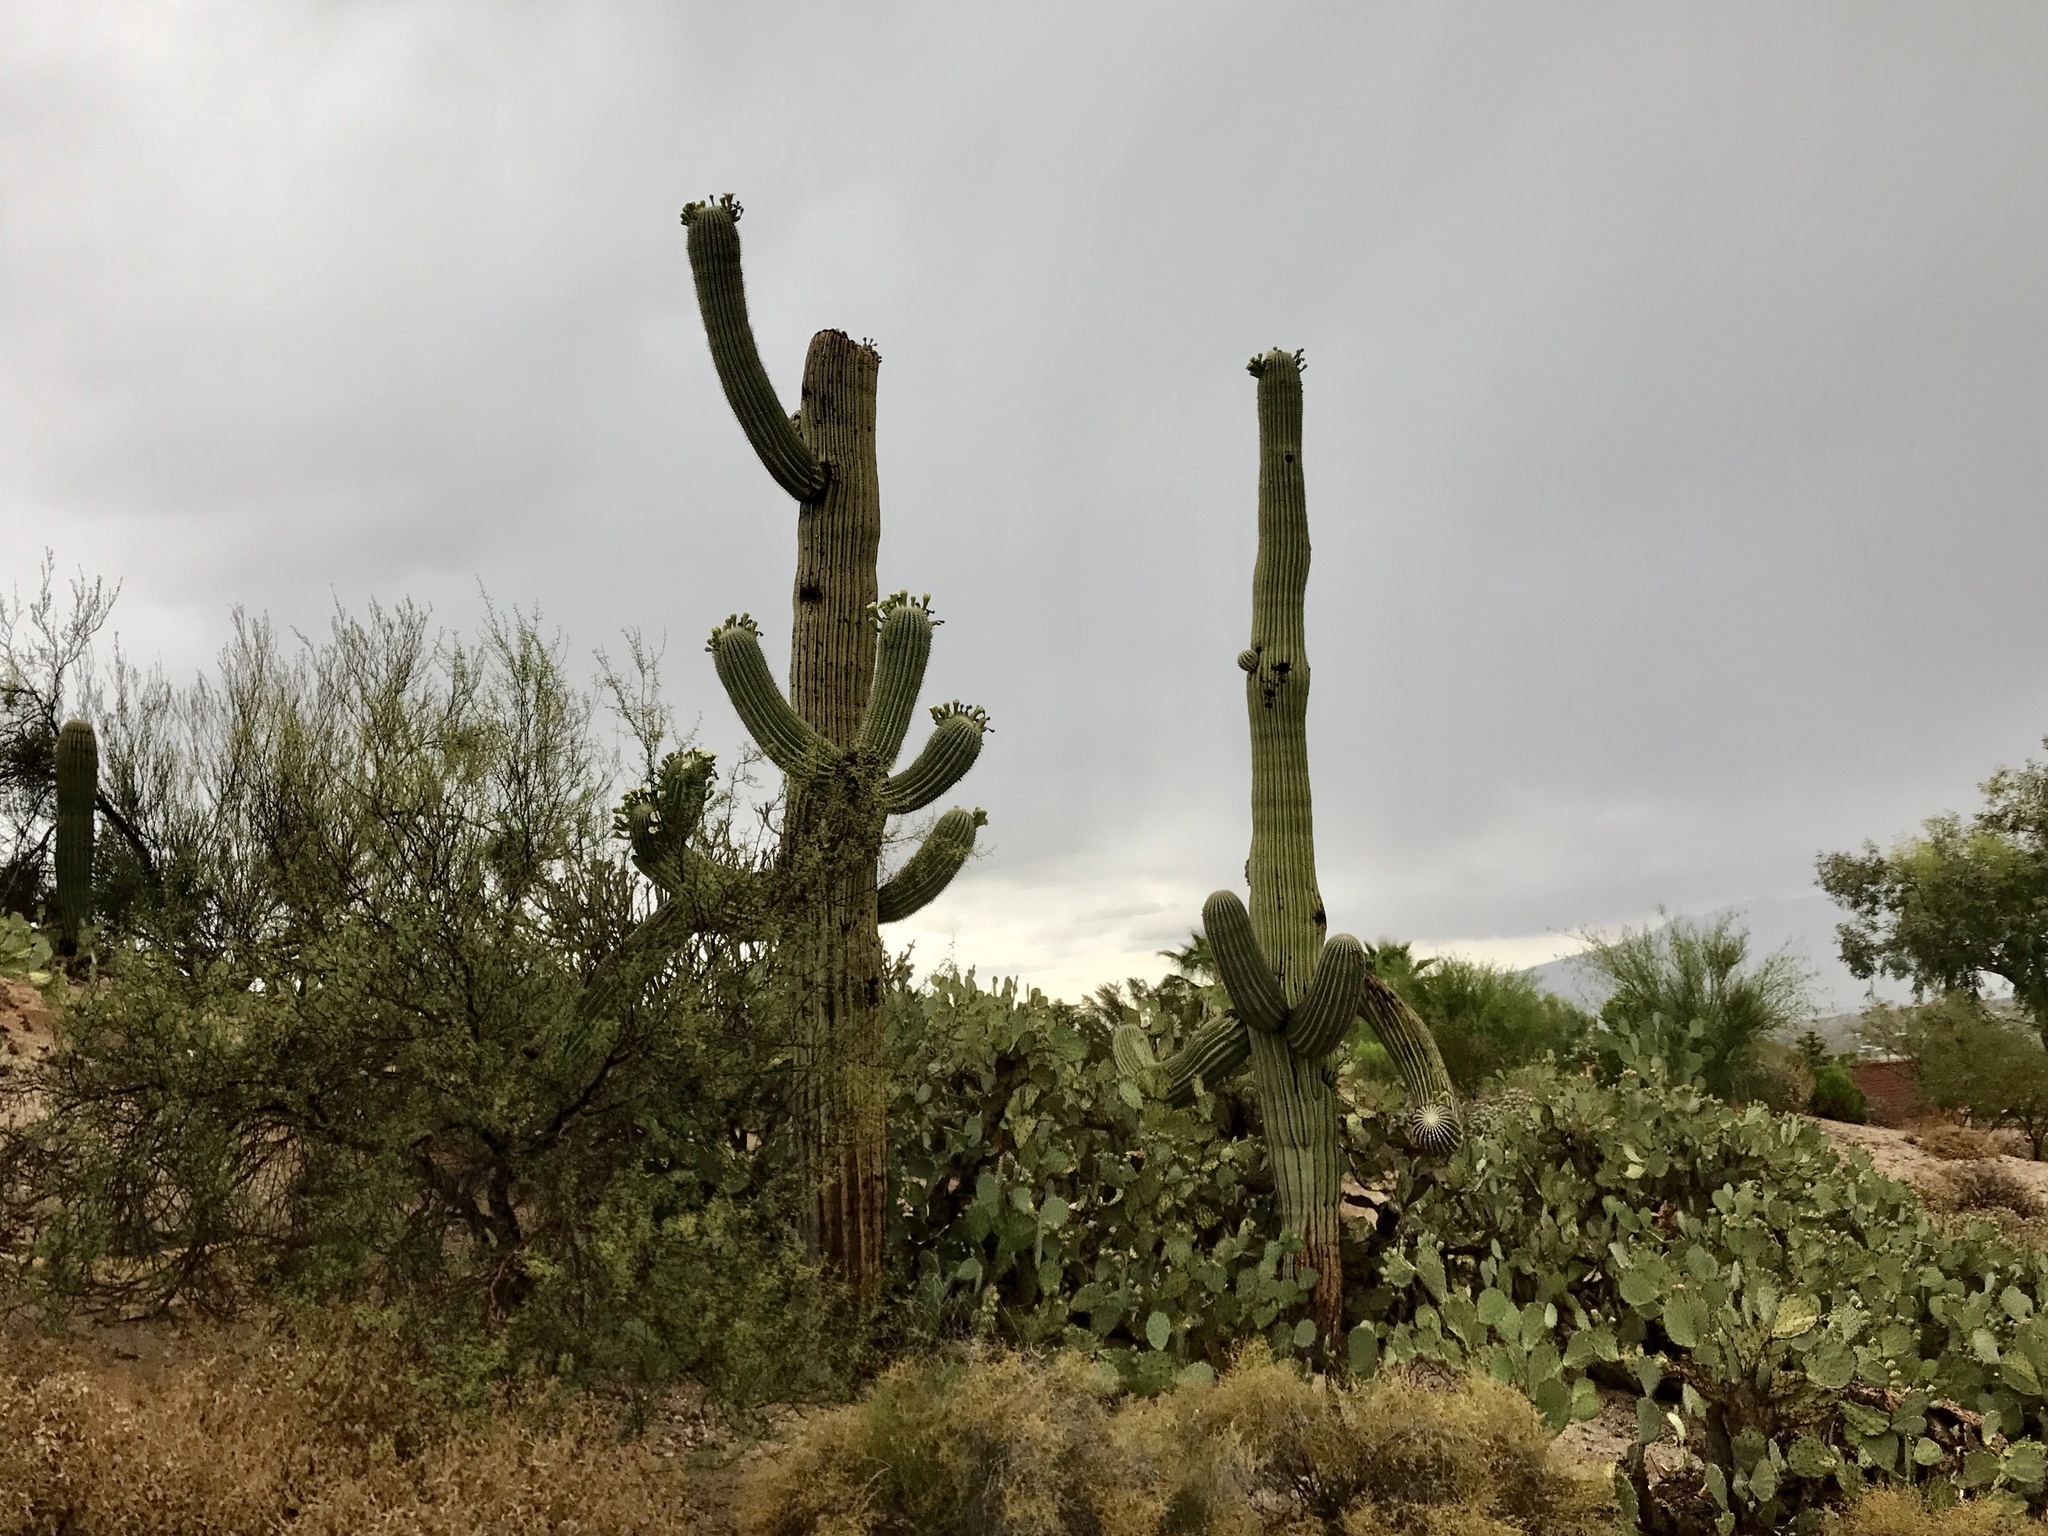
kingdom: Plantae
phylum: Tracheophyta
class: Magnoliopsida
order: Caryophyllales
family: Cactaceae
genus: Carnegiea
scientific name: Carnegiea gigantea
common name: Saguaro
